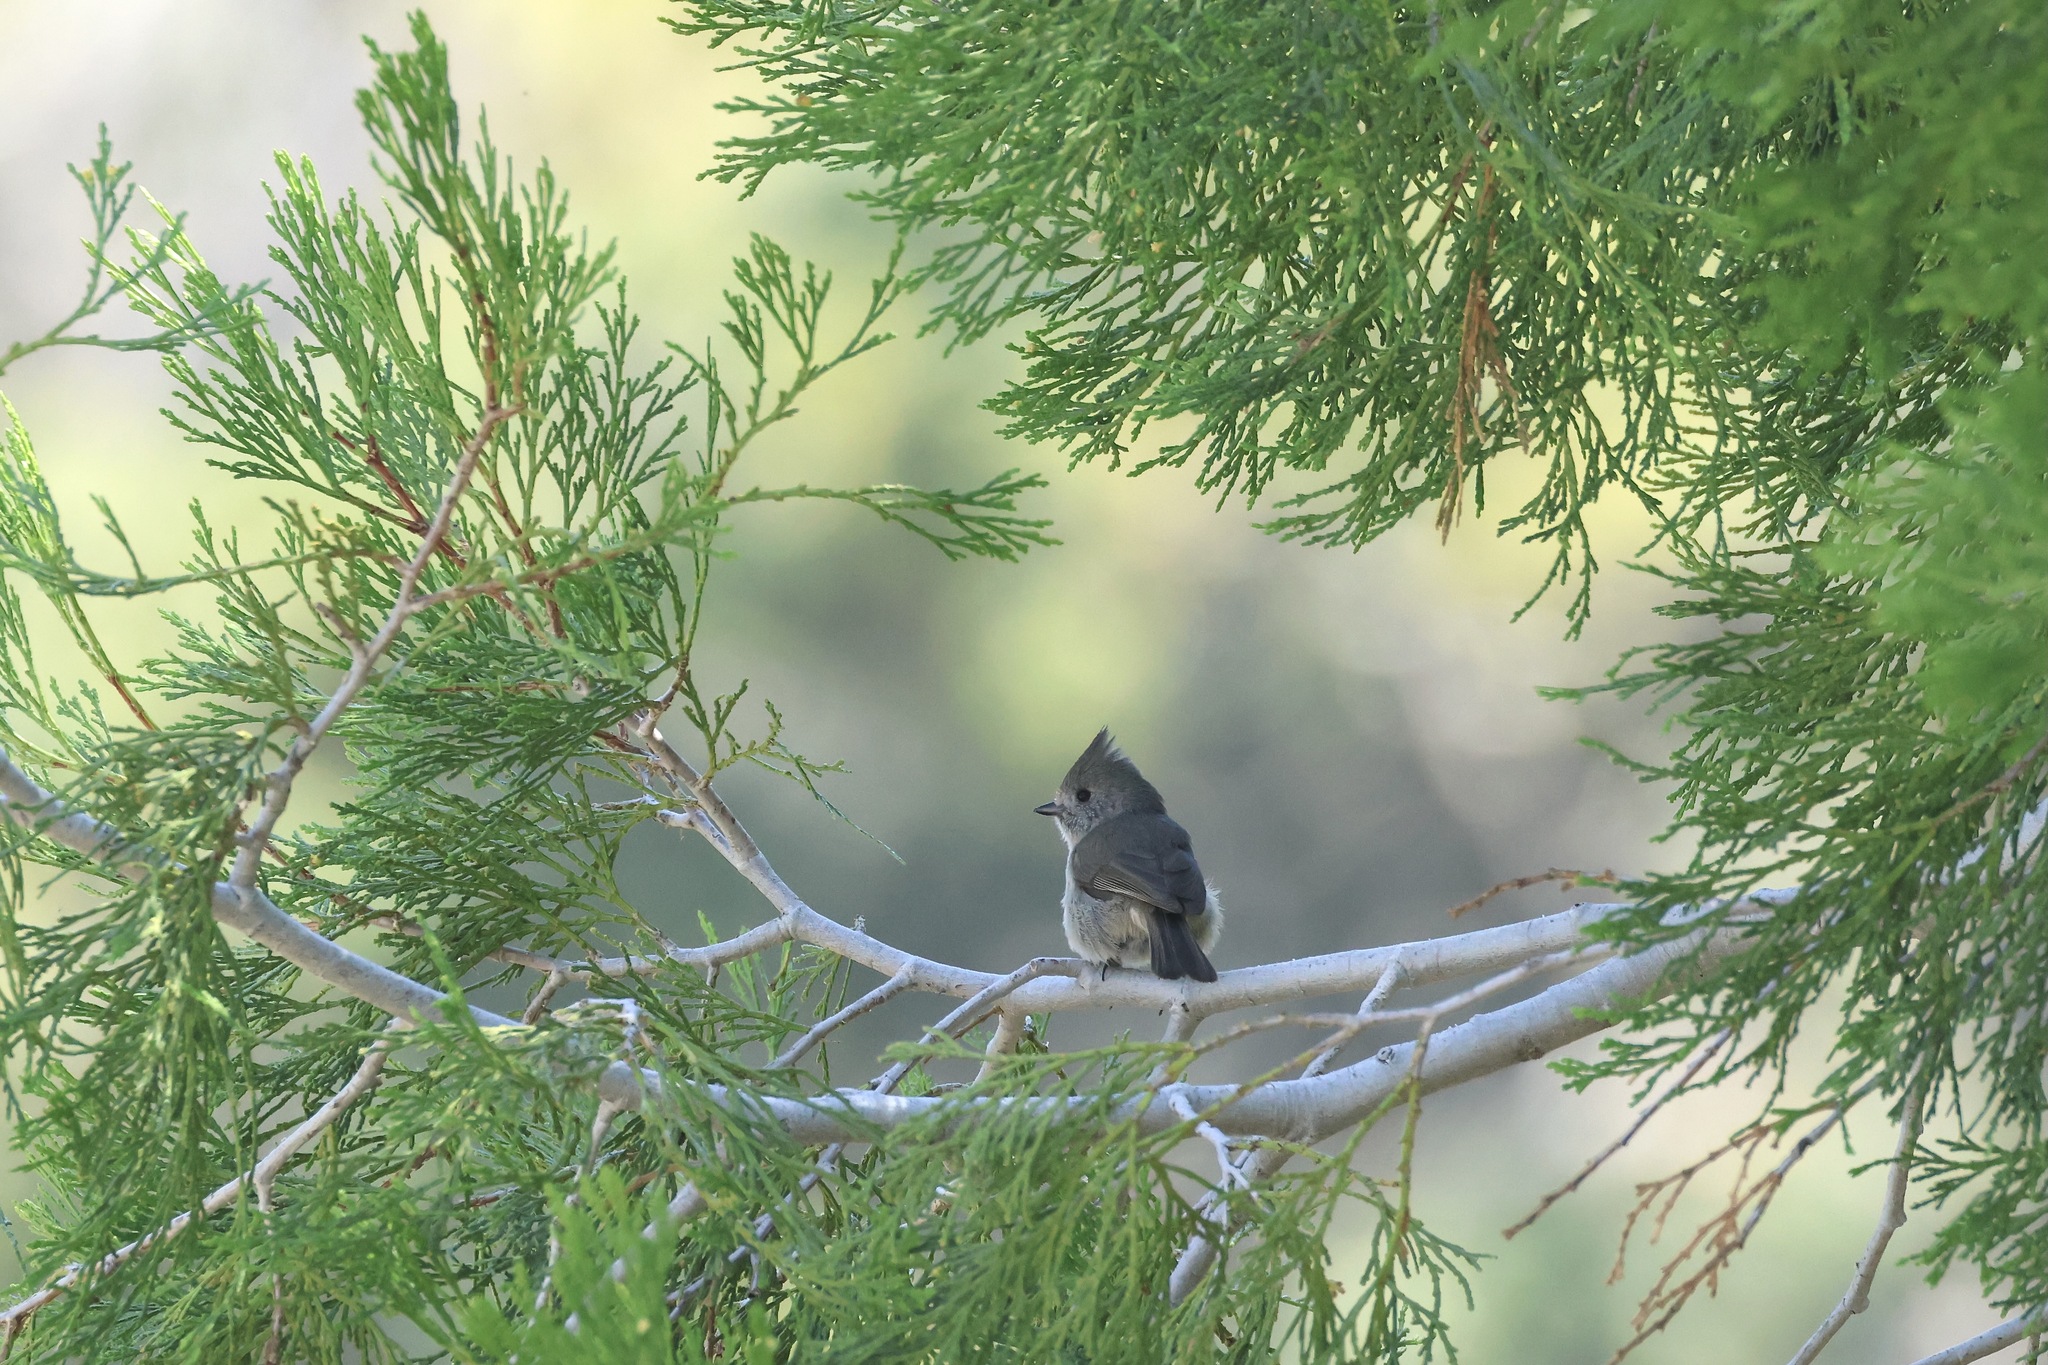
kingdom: Animalia
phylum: Chordata
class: Aves
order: Passeriformes
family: Paridae
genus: Baeolophus
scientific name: Baeolophus inornatus
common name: Oak titmouse
